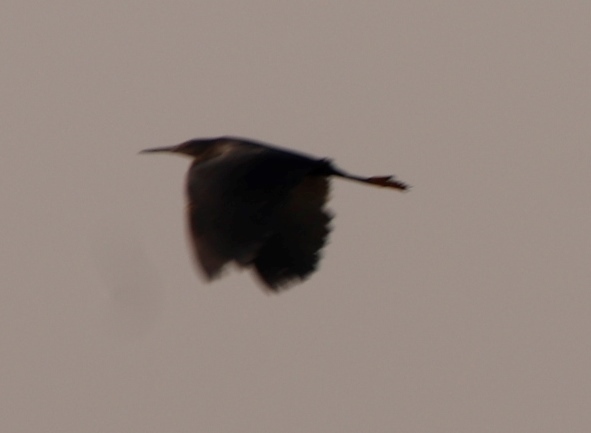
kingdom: Animalia
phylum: Chordata
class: Aves
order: Pelecaniformes
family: Ardeidae
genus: Ardea
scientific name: Ardea purpurea
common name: Purple heron
